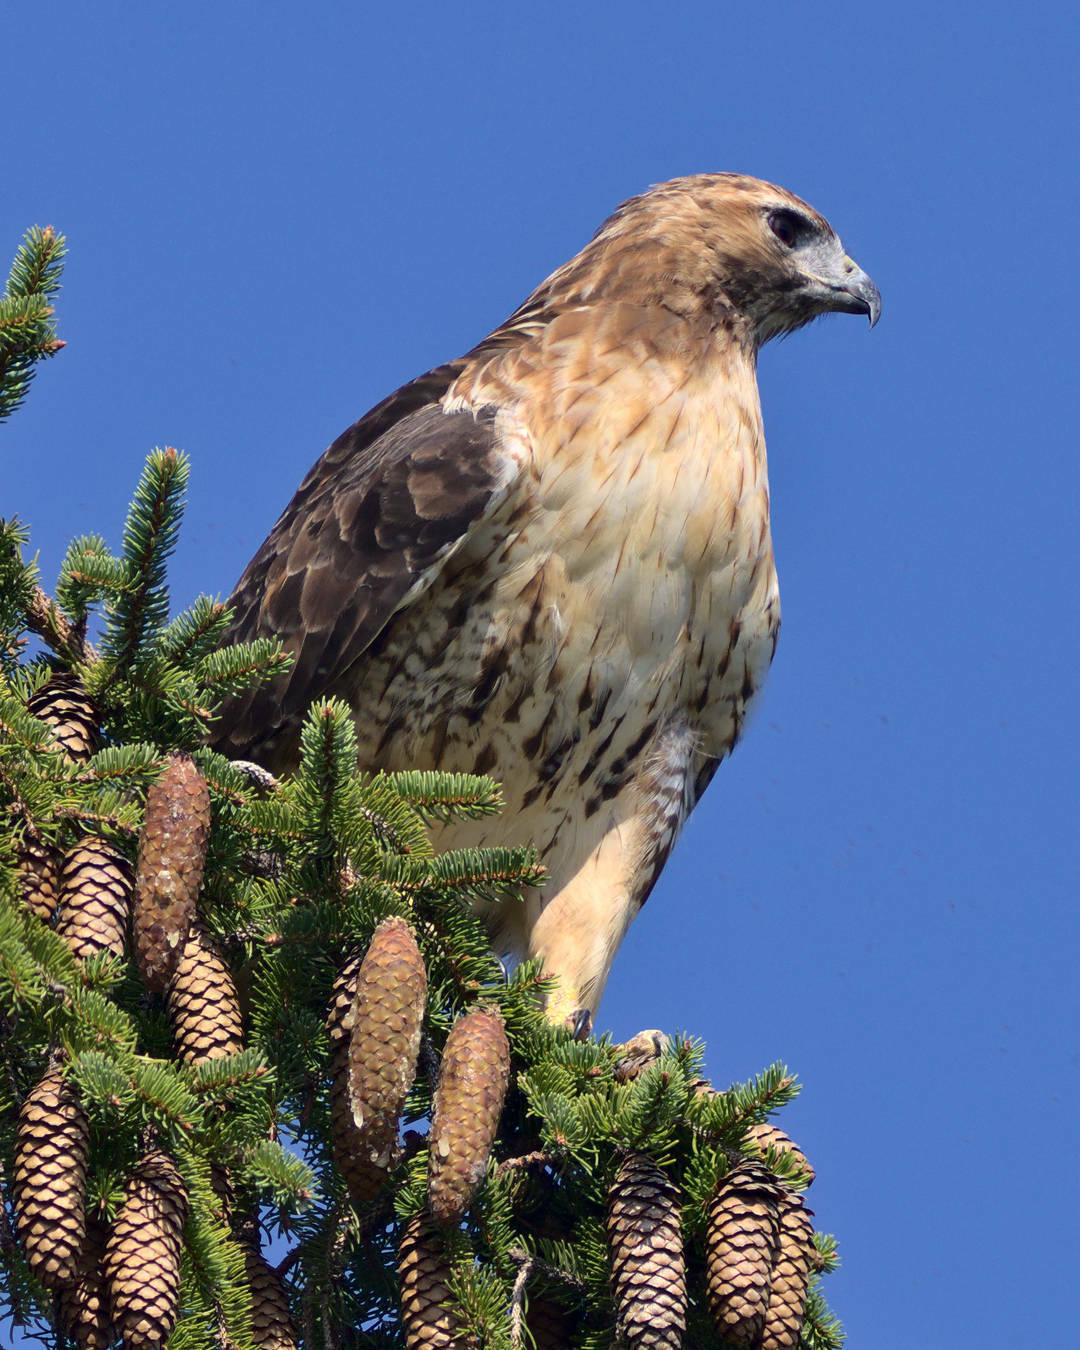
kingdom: Animalia
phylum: Chordata
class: Aves
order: Accipitriformes
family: Accipitridae
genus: Buteo
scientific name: Buteo jamaicensis
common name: Red-tailed hawk
